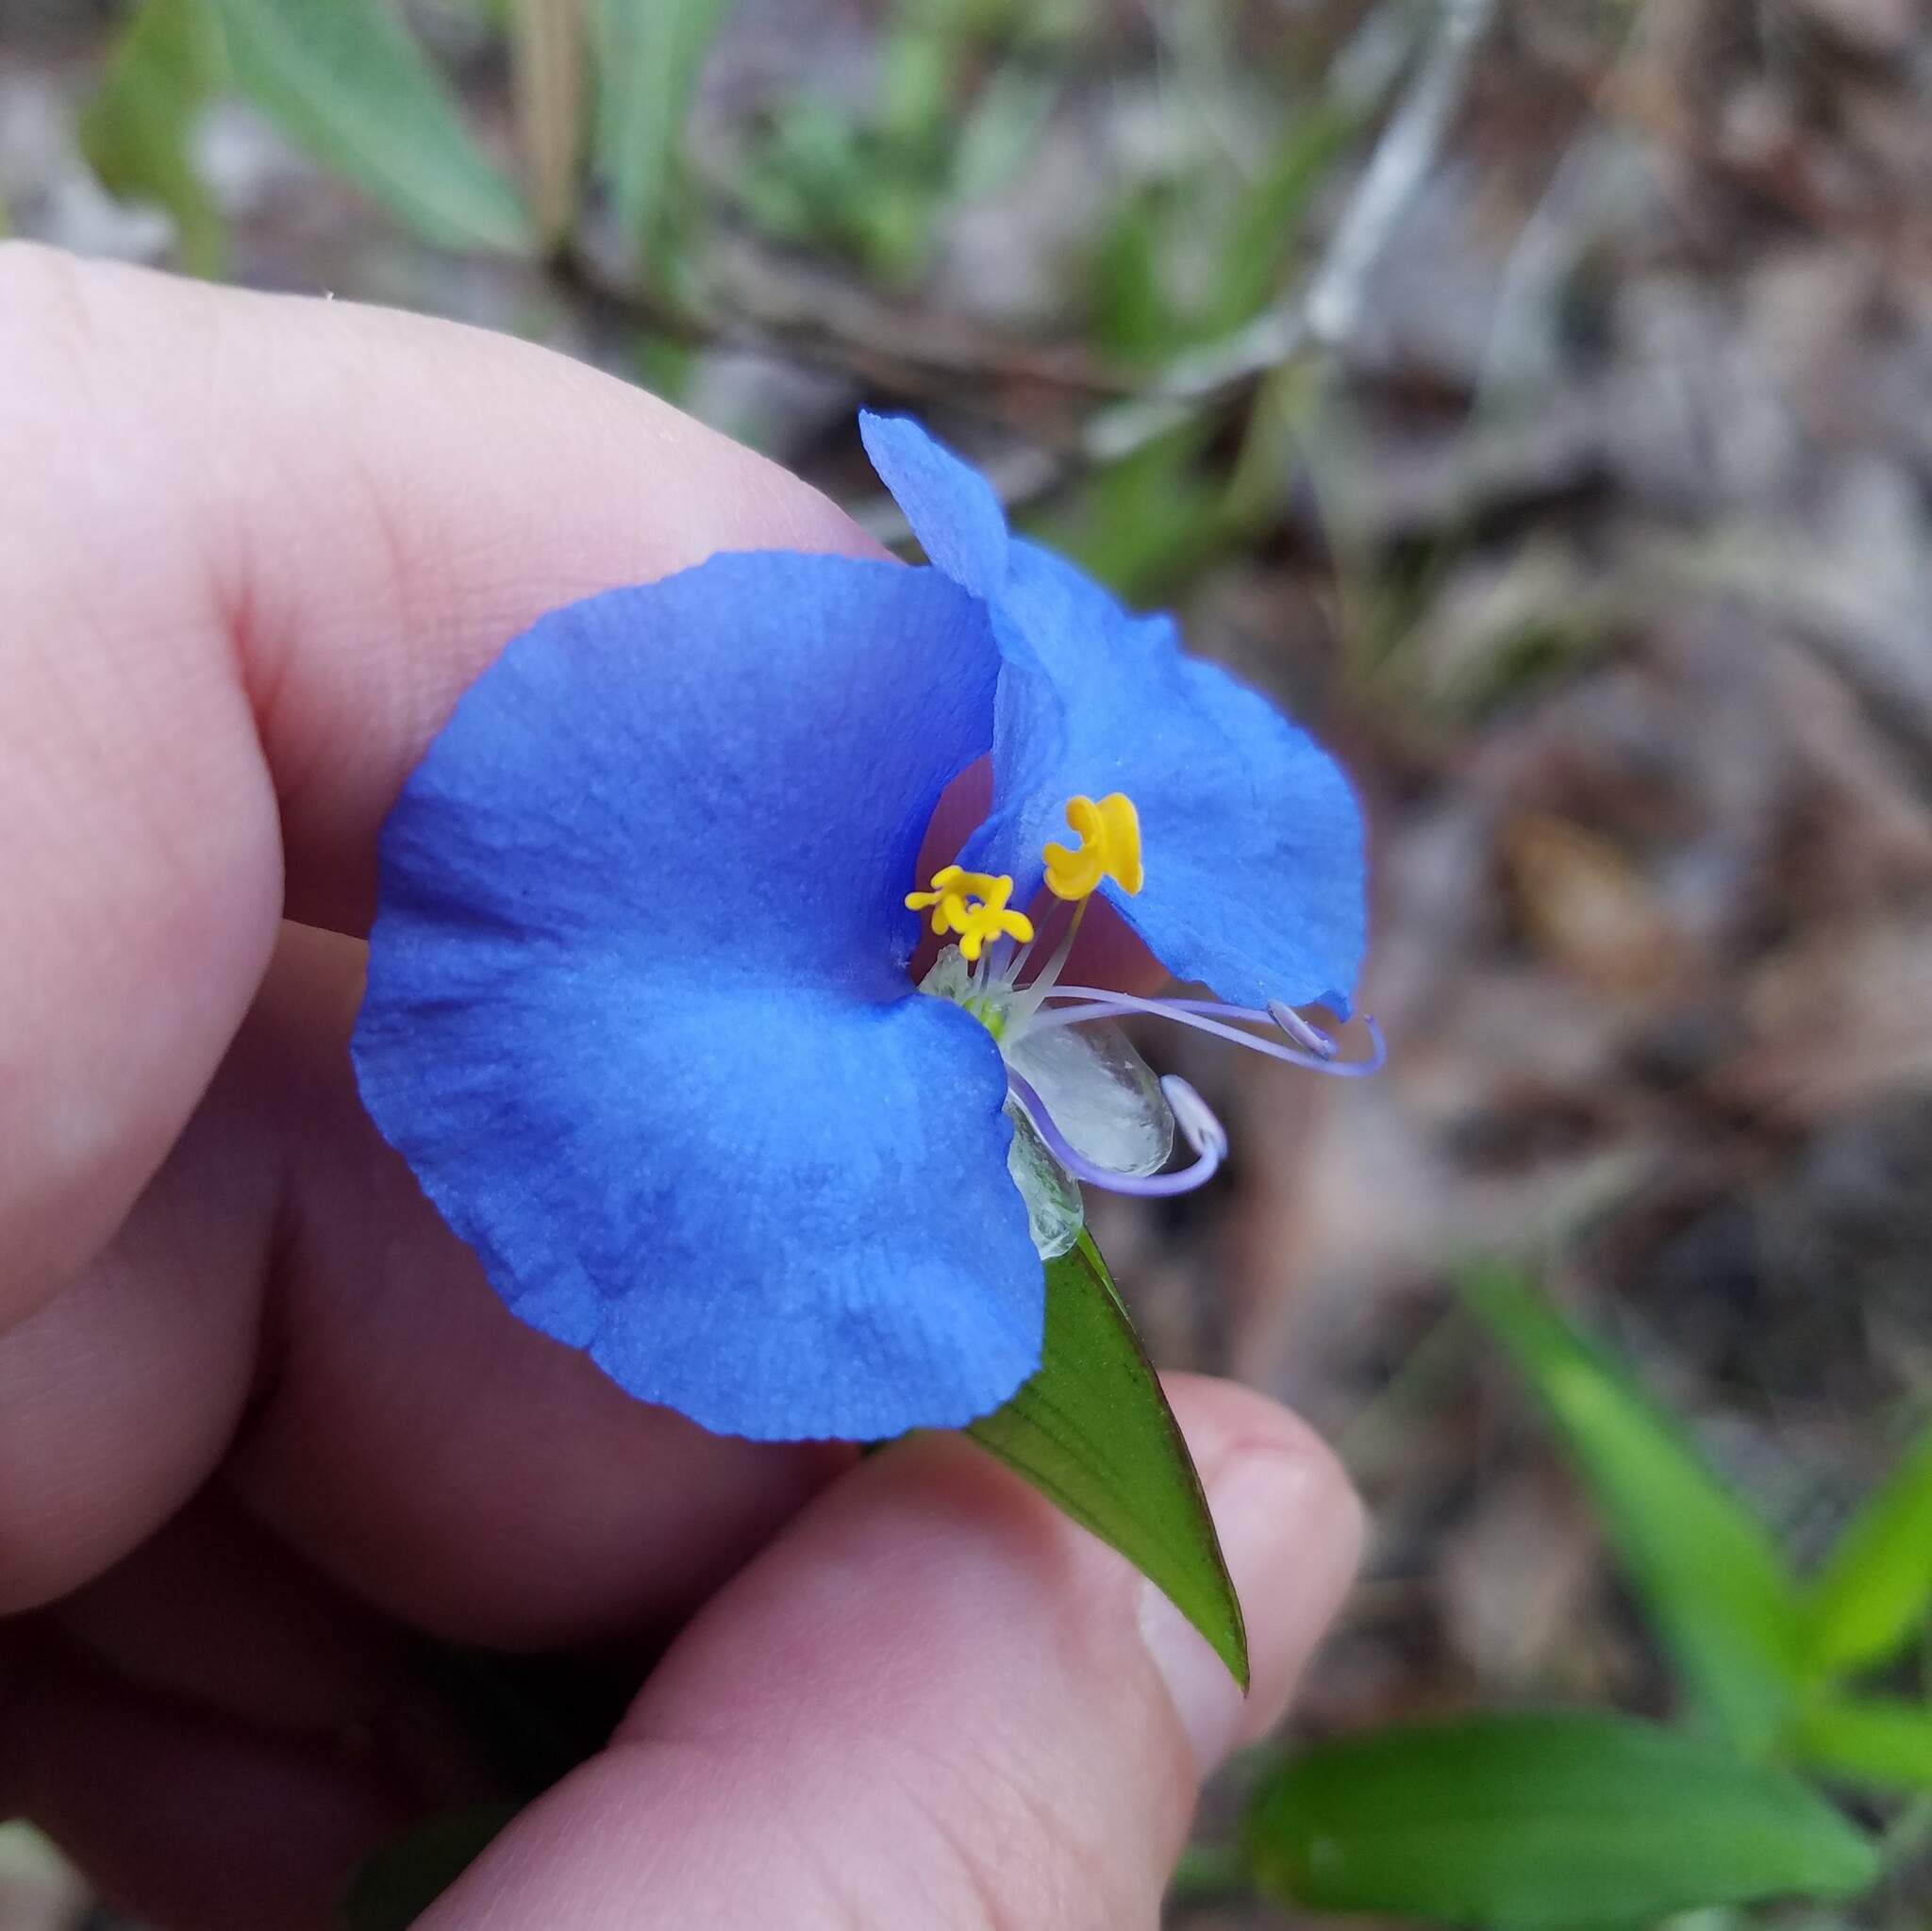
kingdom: Plantae
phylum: Tracheophyta
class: Liliopsida
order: Commelinales
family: Commelinaceae
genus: Commelina
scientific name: Commelina erecta
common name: Blousel blommetjie
